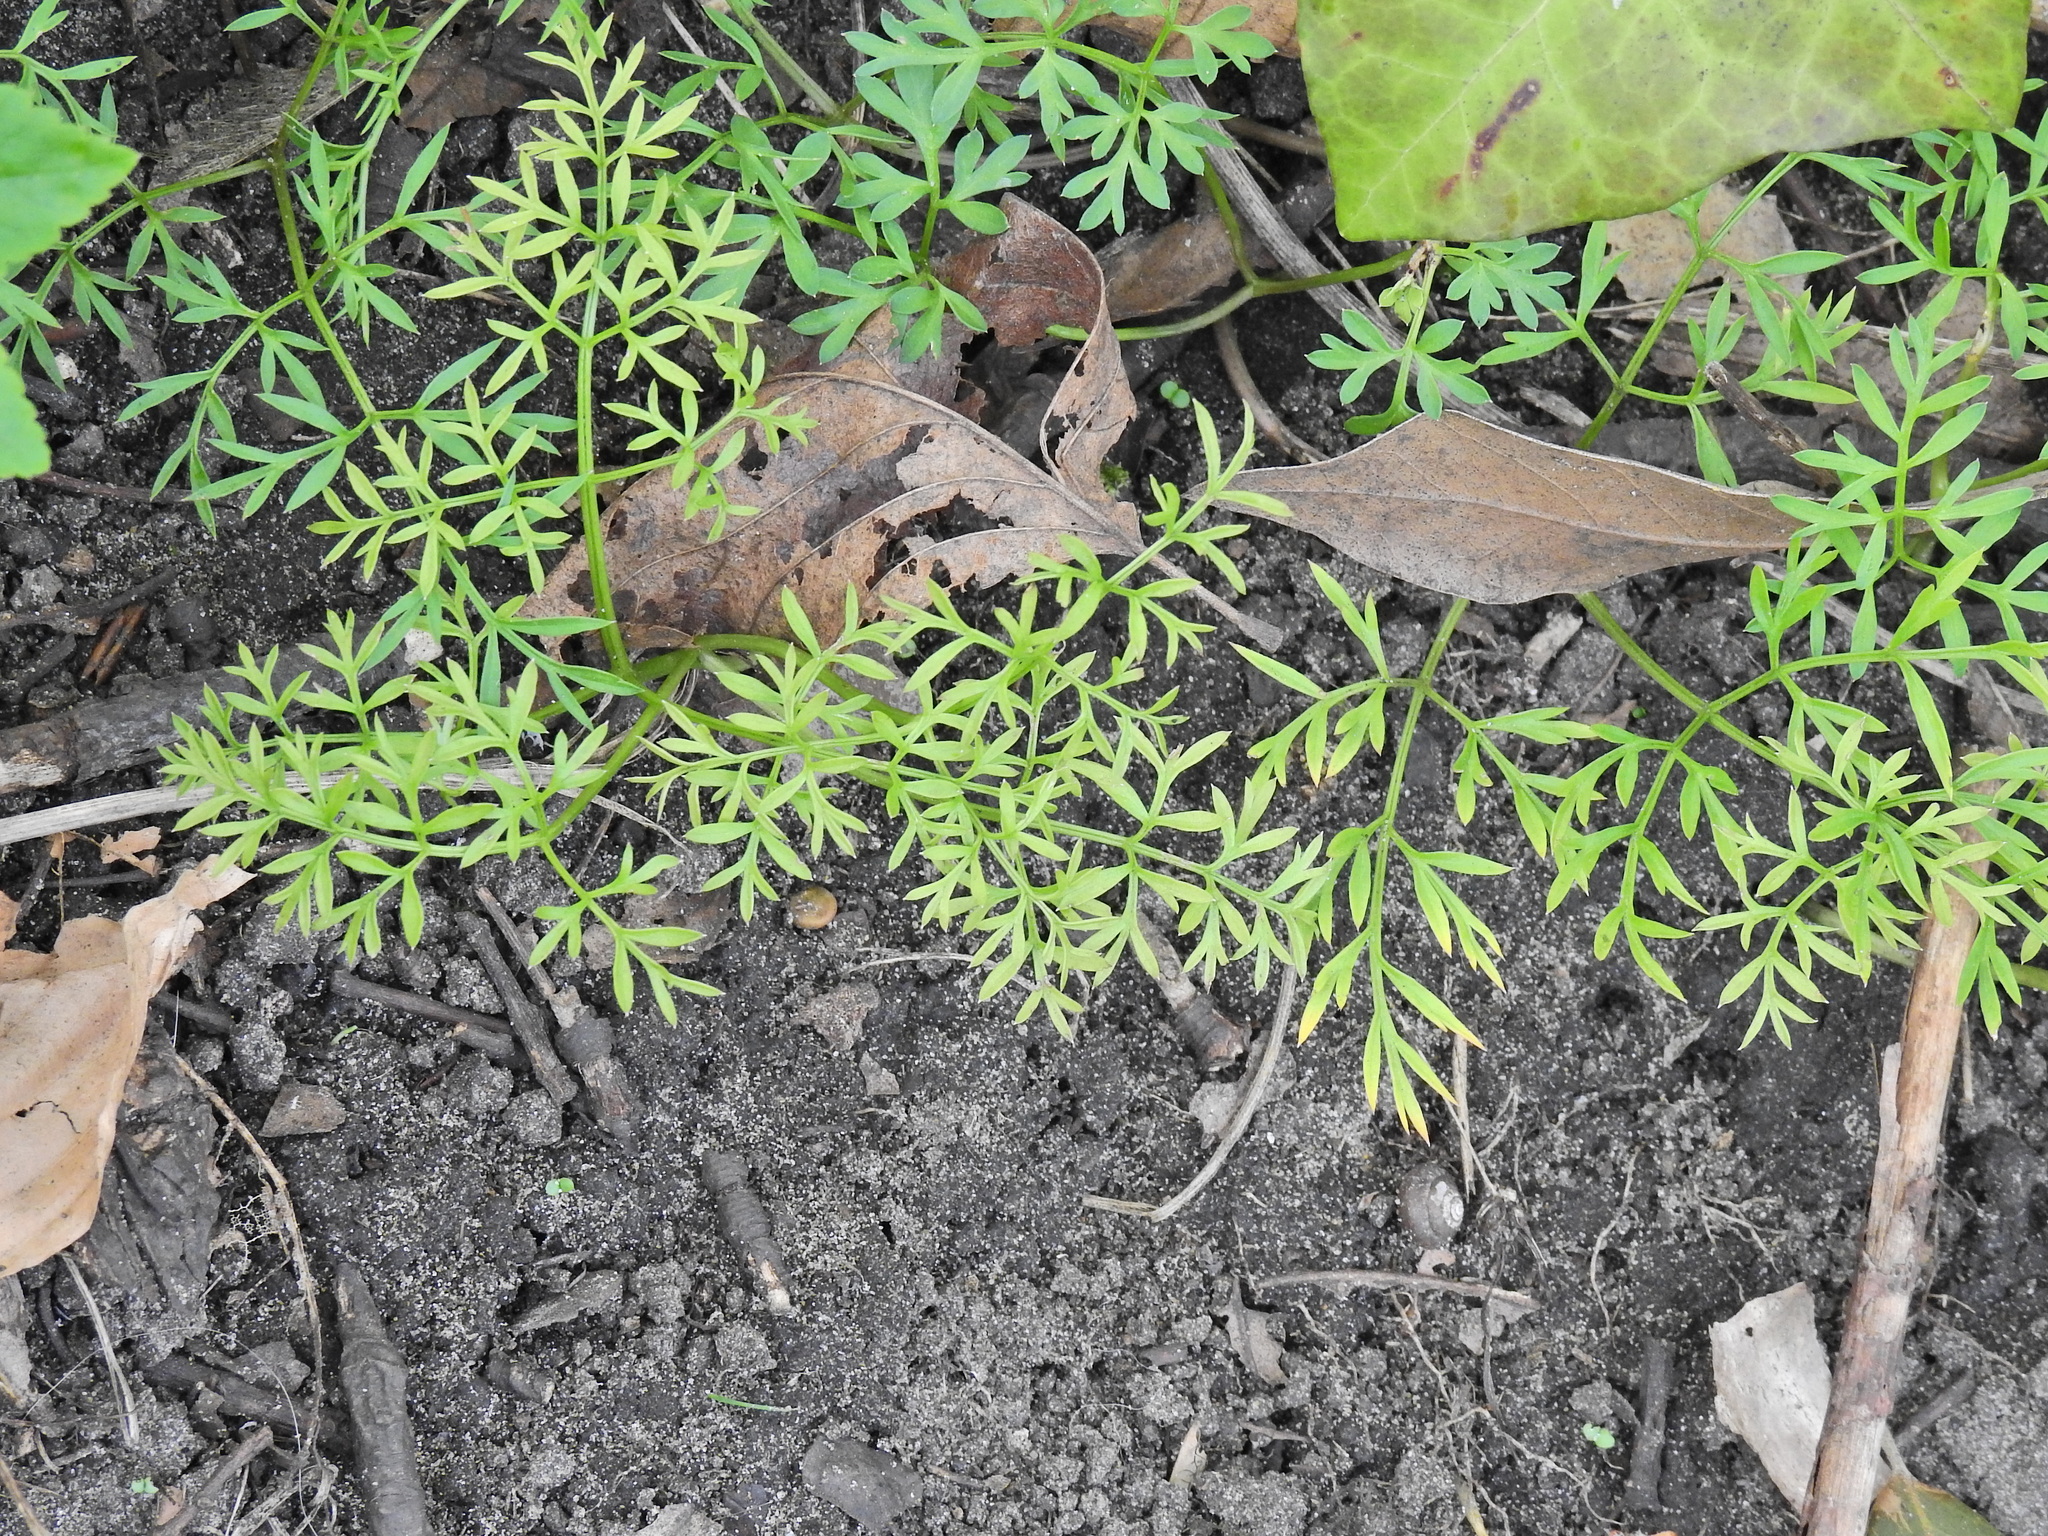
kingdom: Plantae
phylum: Tracheophyta
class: Magnoliopsida
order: Apiales
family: Apiaceae
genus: Conopodium
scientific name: Conopodium majus
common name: Pignut
